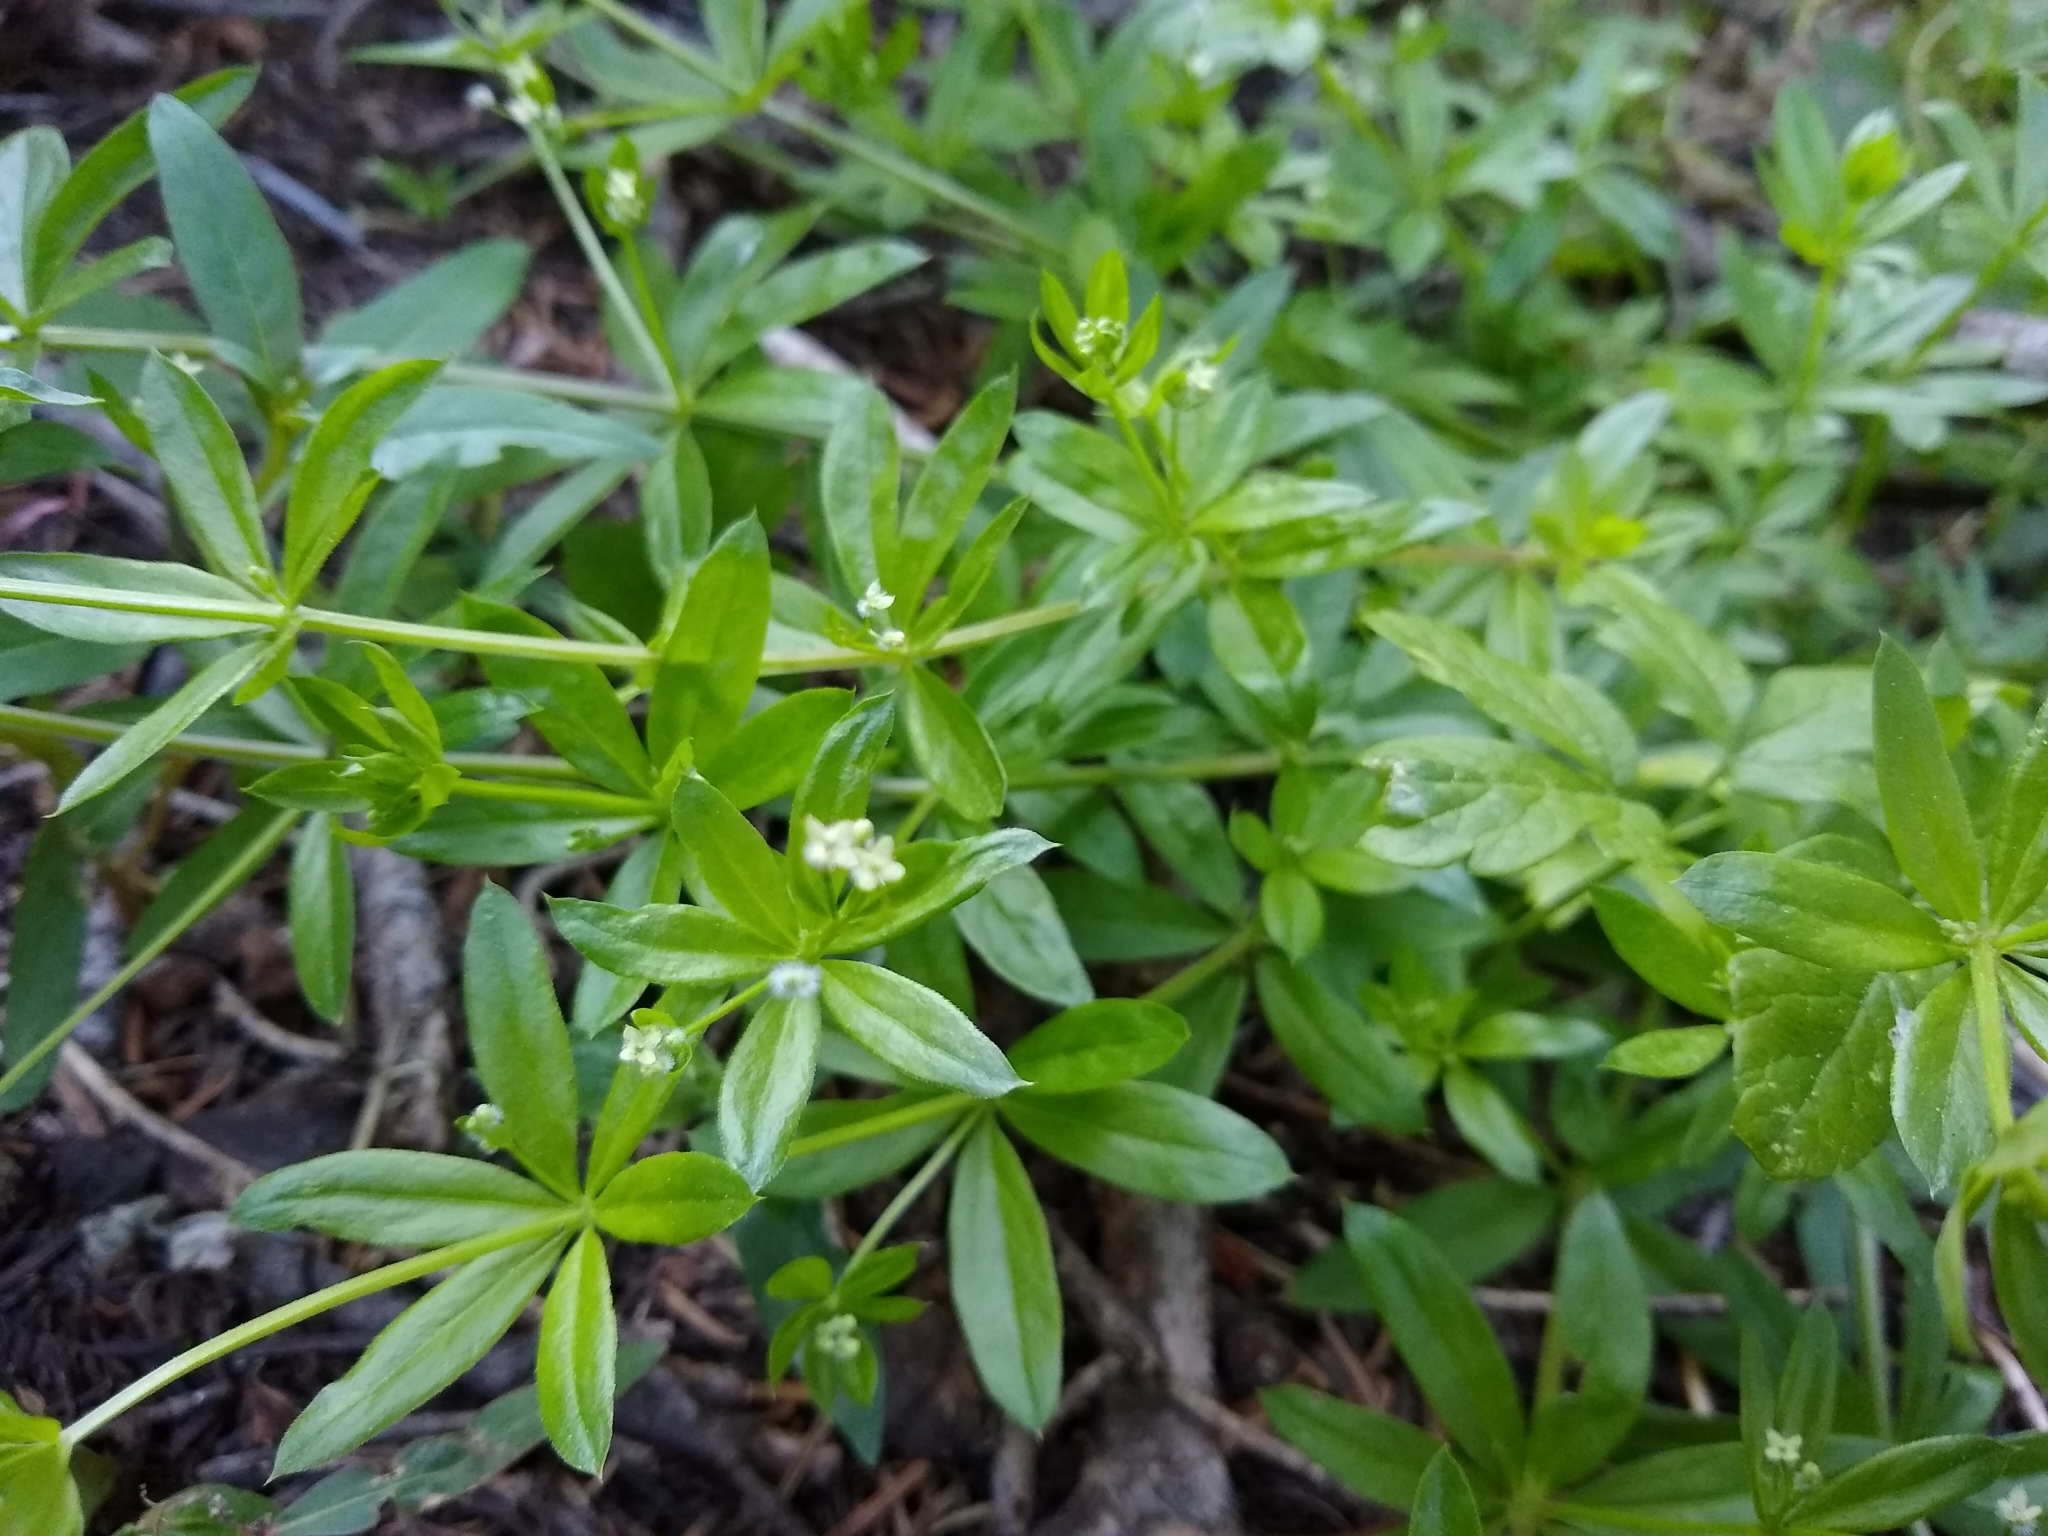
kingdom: Plantae
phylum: Tracheophyta
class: Magnoliopsida
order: Gentianales
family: Rubiaceae
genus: Galium
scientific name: Galium triflorum
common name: Fragrant bedstraw
